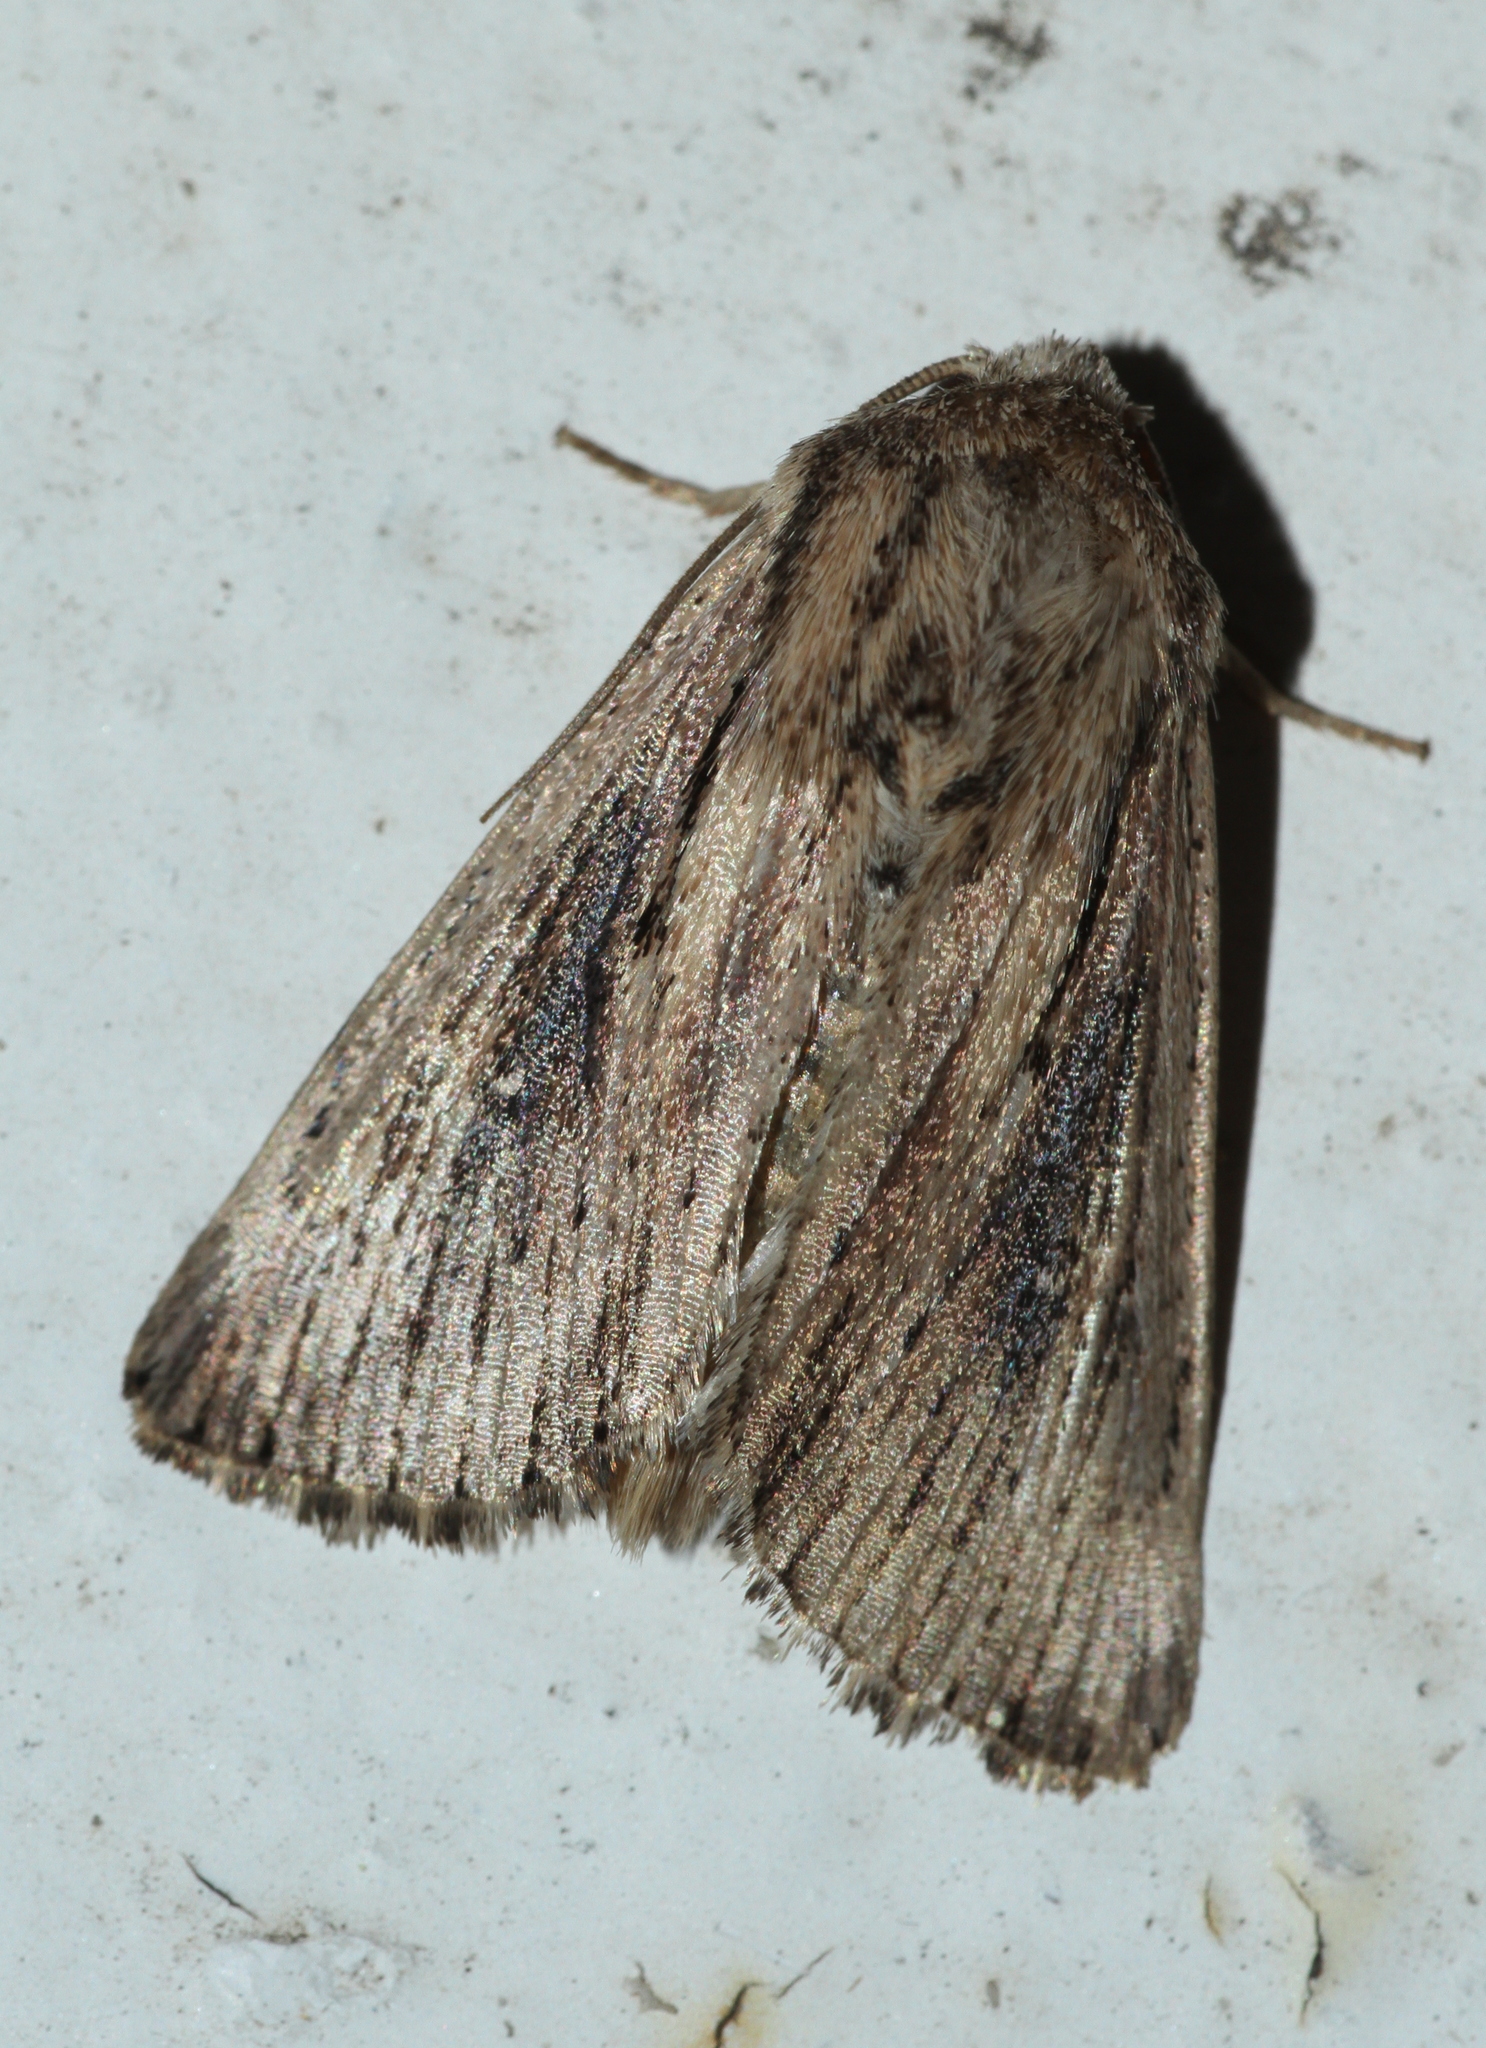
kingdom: Animalia
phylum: Arthropoda
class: Insecta
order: Lepidoptera
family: Noctuidae
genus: Leucania
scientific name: Leucania putrescens
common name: Devonshire wainscot
